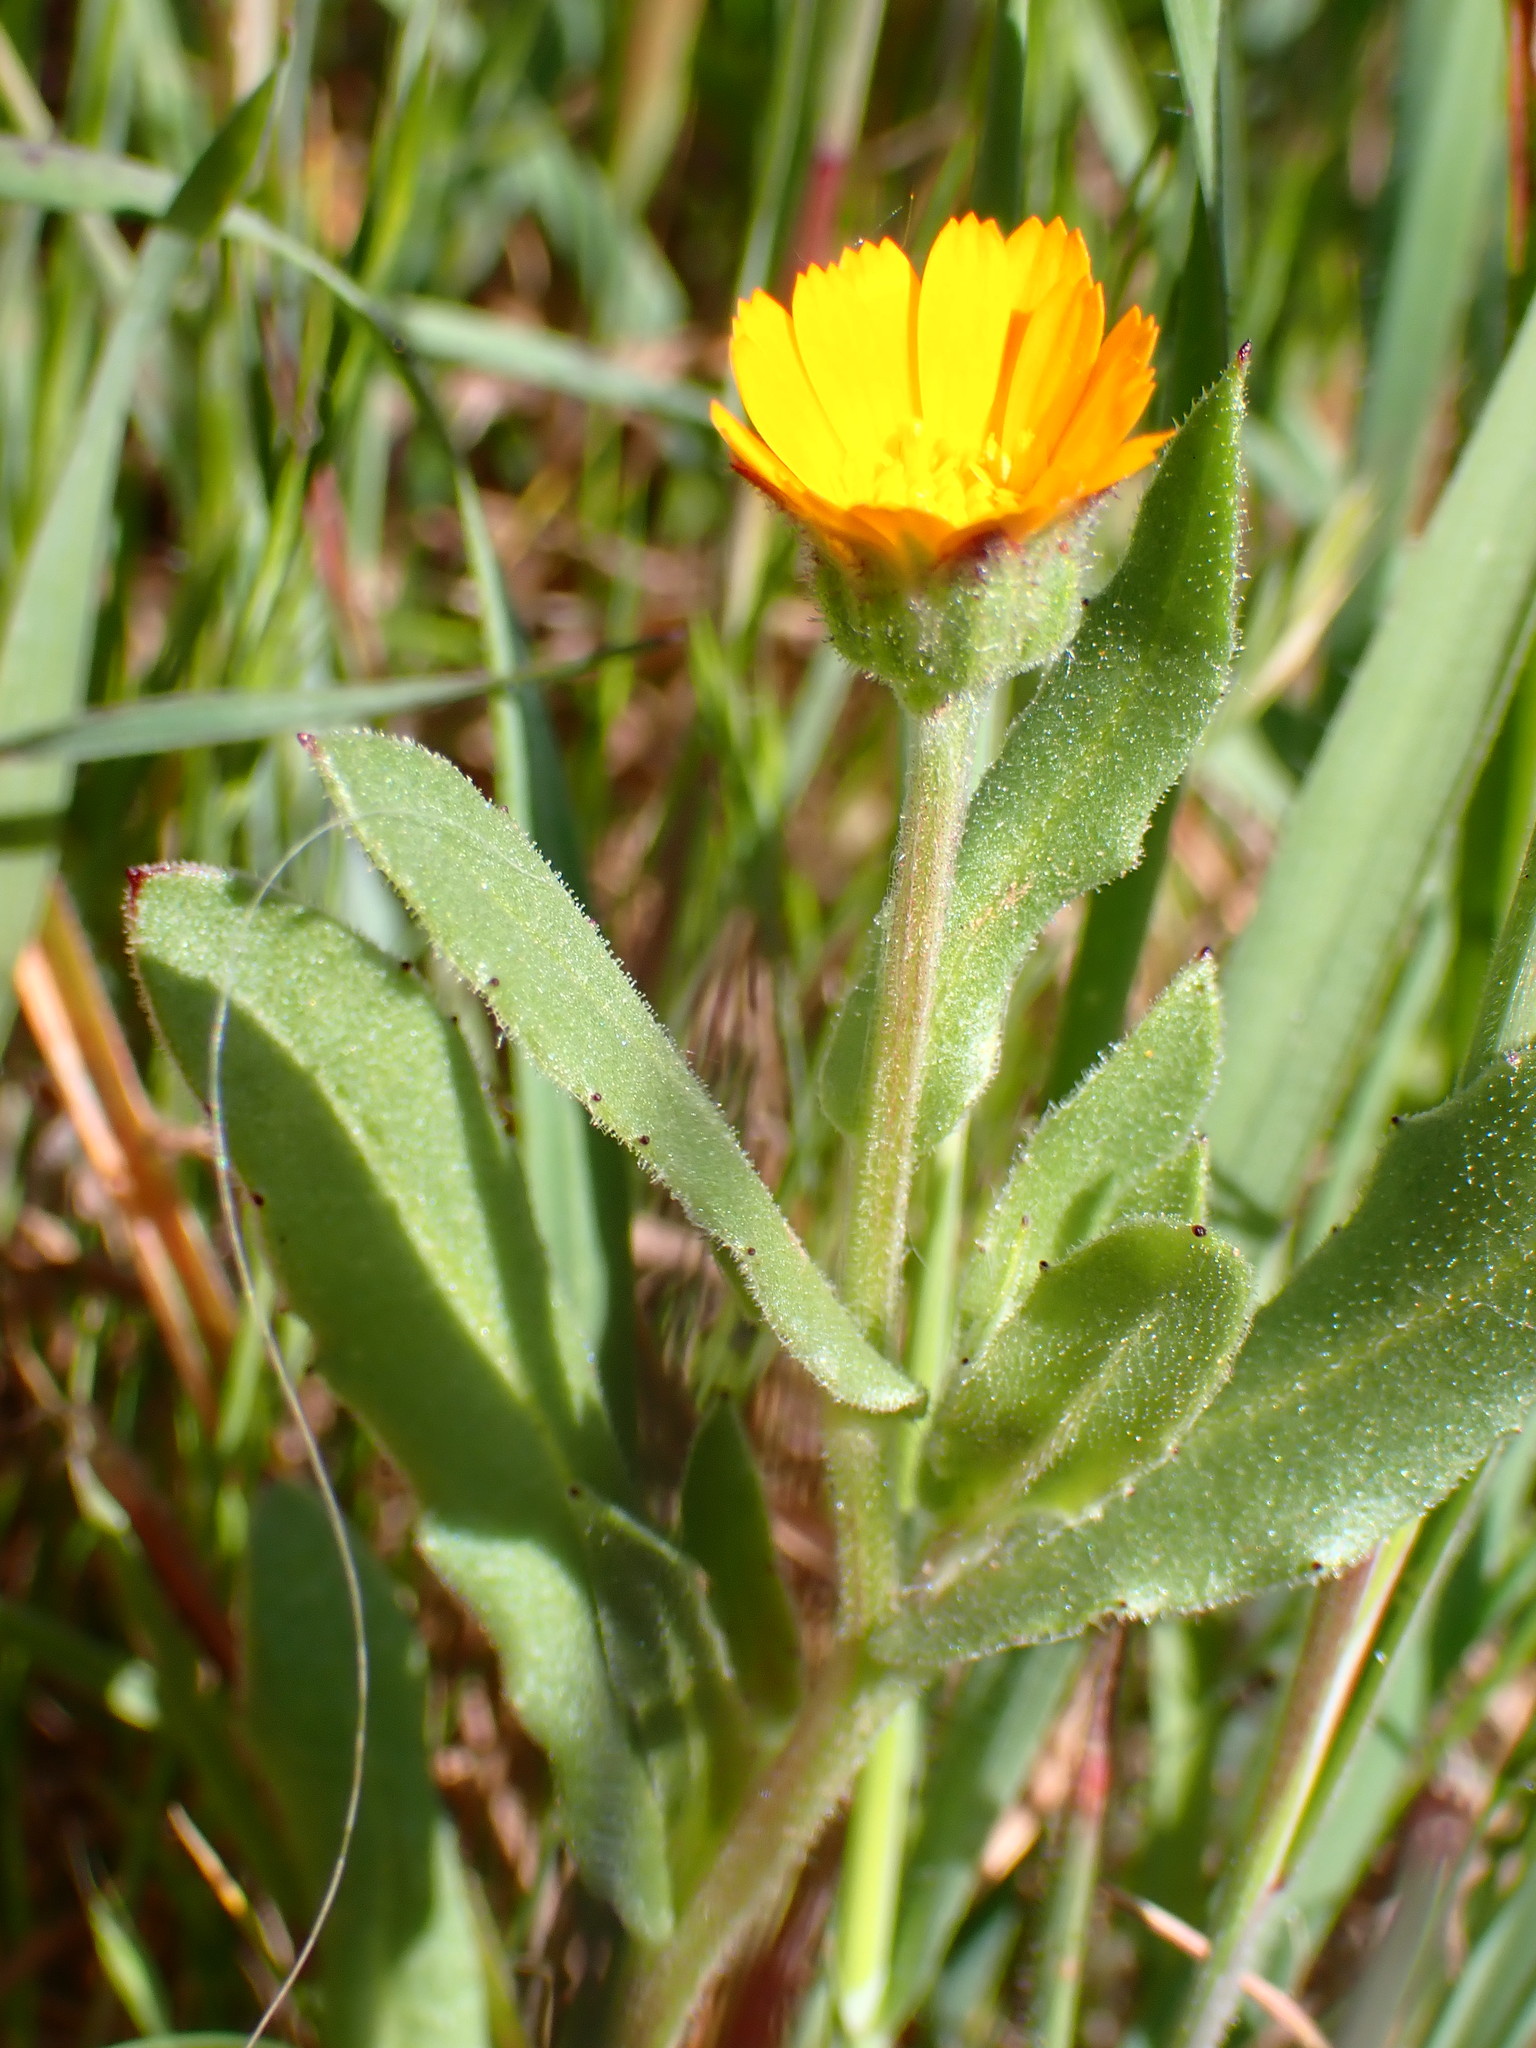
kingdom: Plantae
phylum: Tracheophyta
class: Magnoliopsida
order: Asterales
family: Asteraceae
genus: Calendula
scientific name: Calendula arvensis
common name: Field marigold
